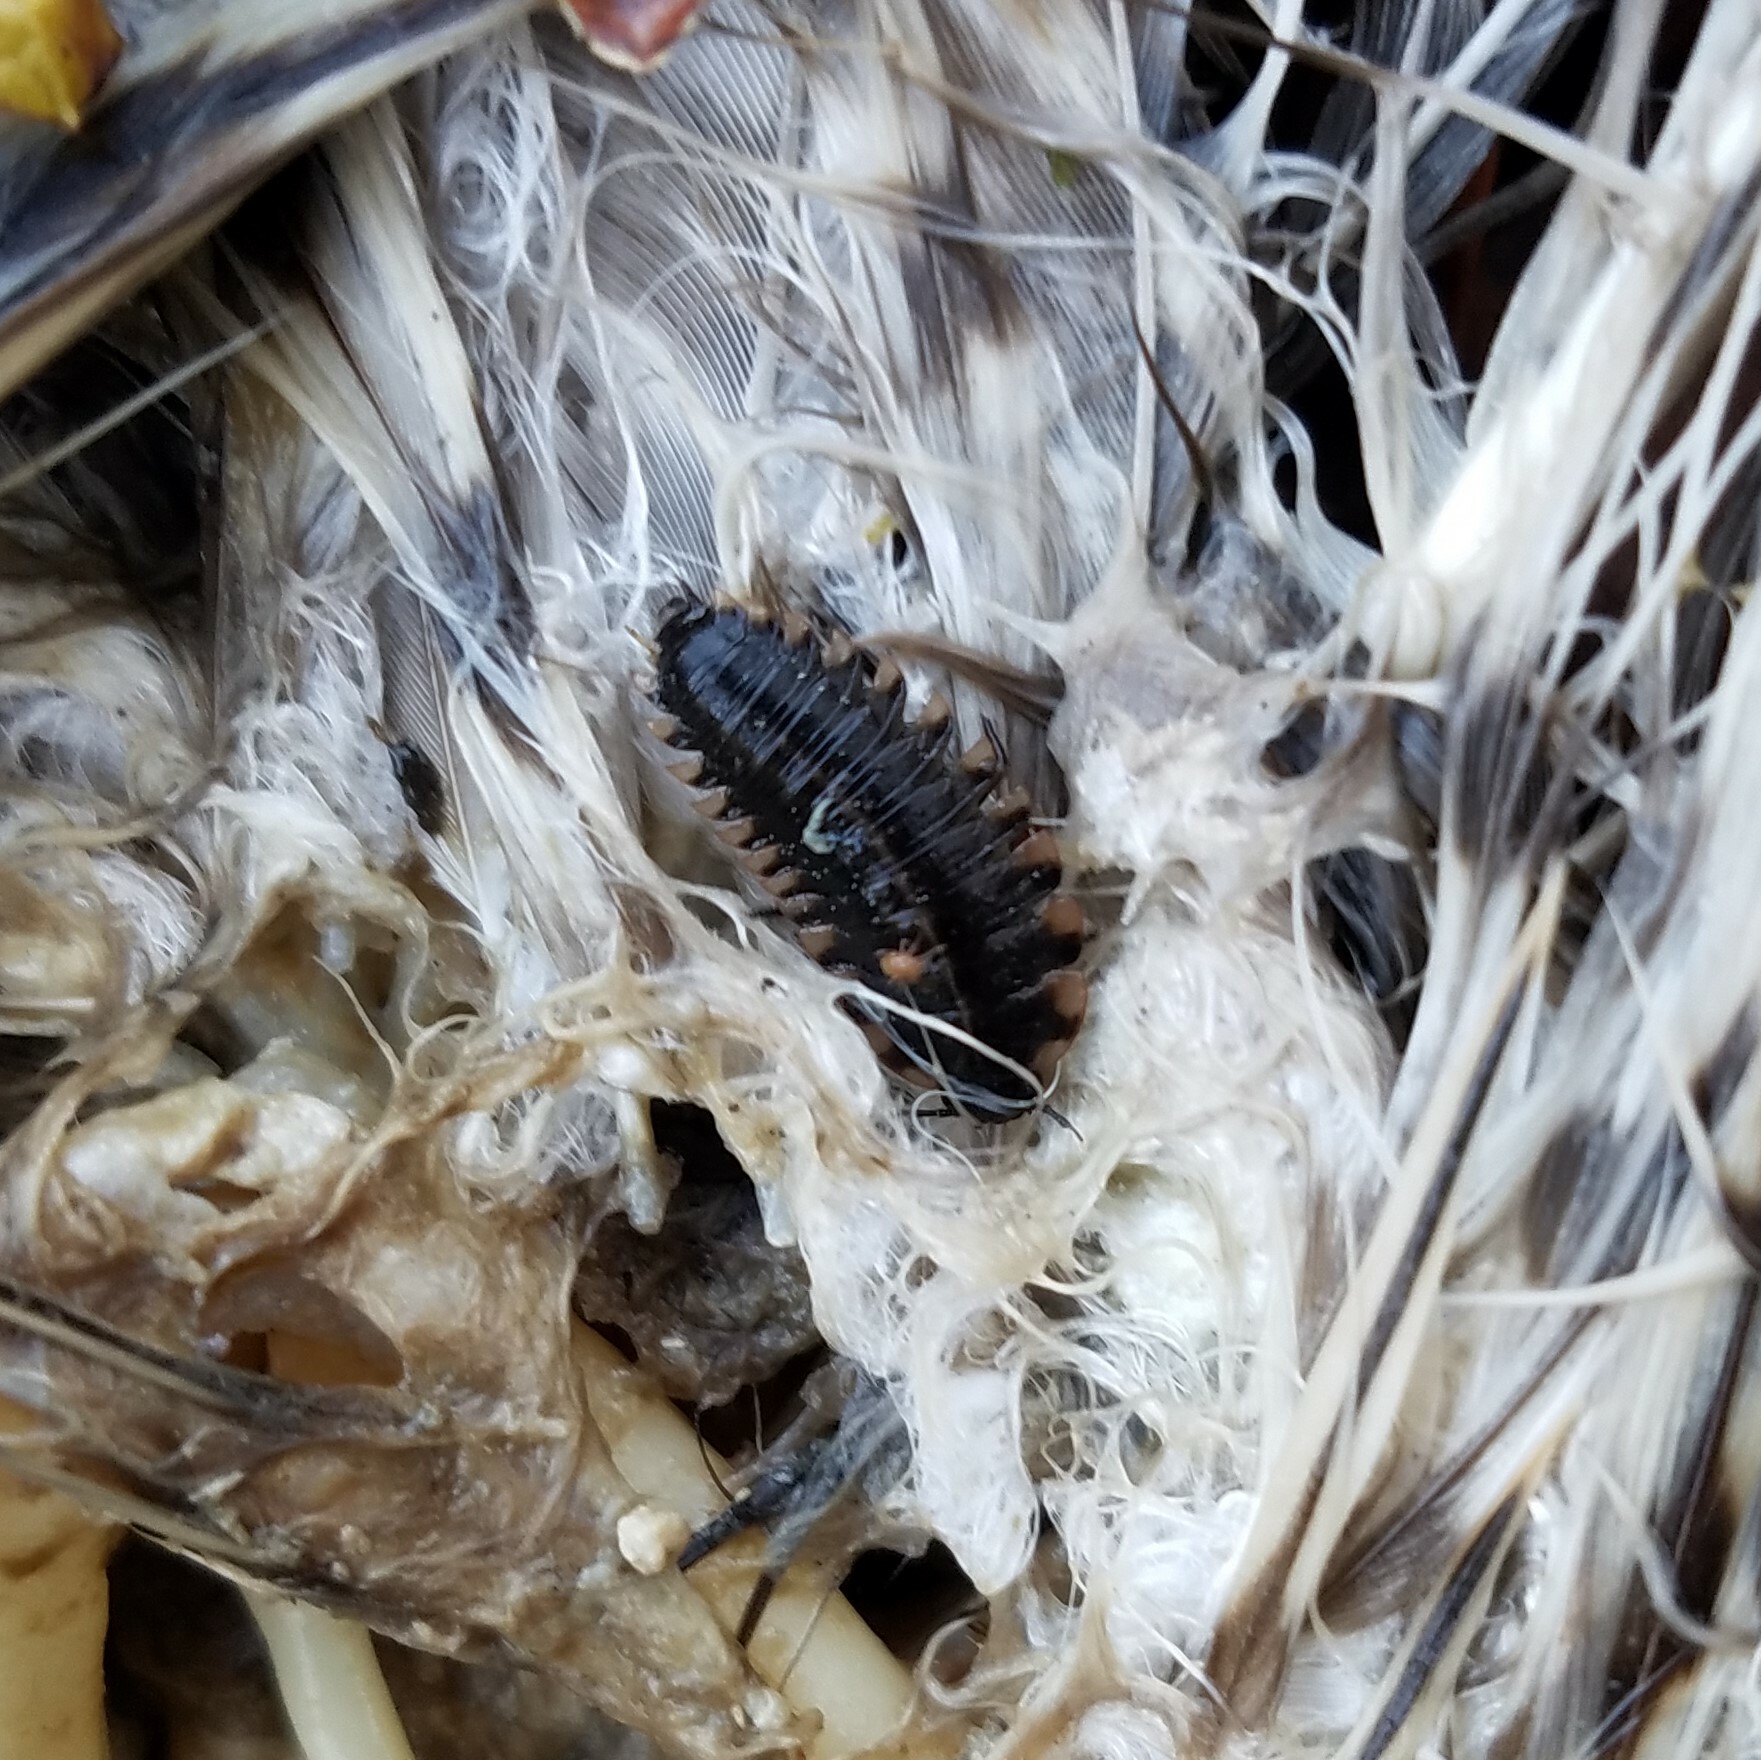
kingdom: Animalia
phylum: Arthropoda
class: Insecta
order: Coleoptera
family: Staphylinidae
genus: Oiceoptoma
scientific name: Oiceoptoma inaequale
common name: Ridged carrion beetle
